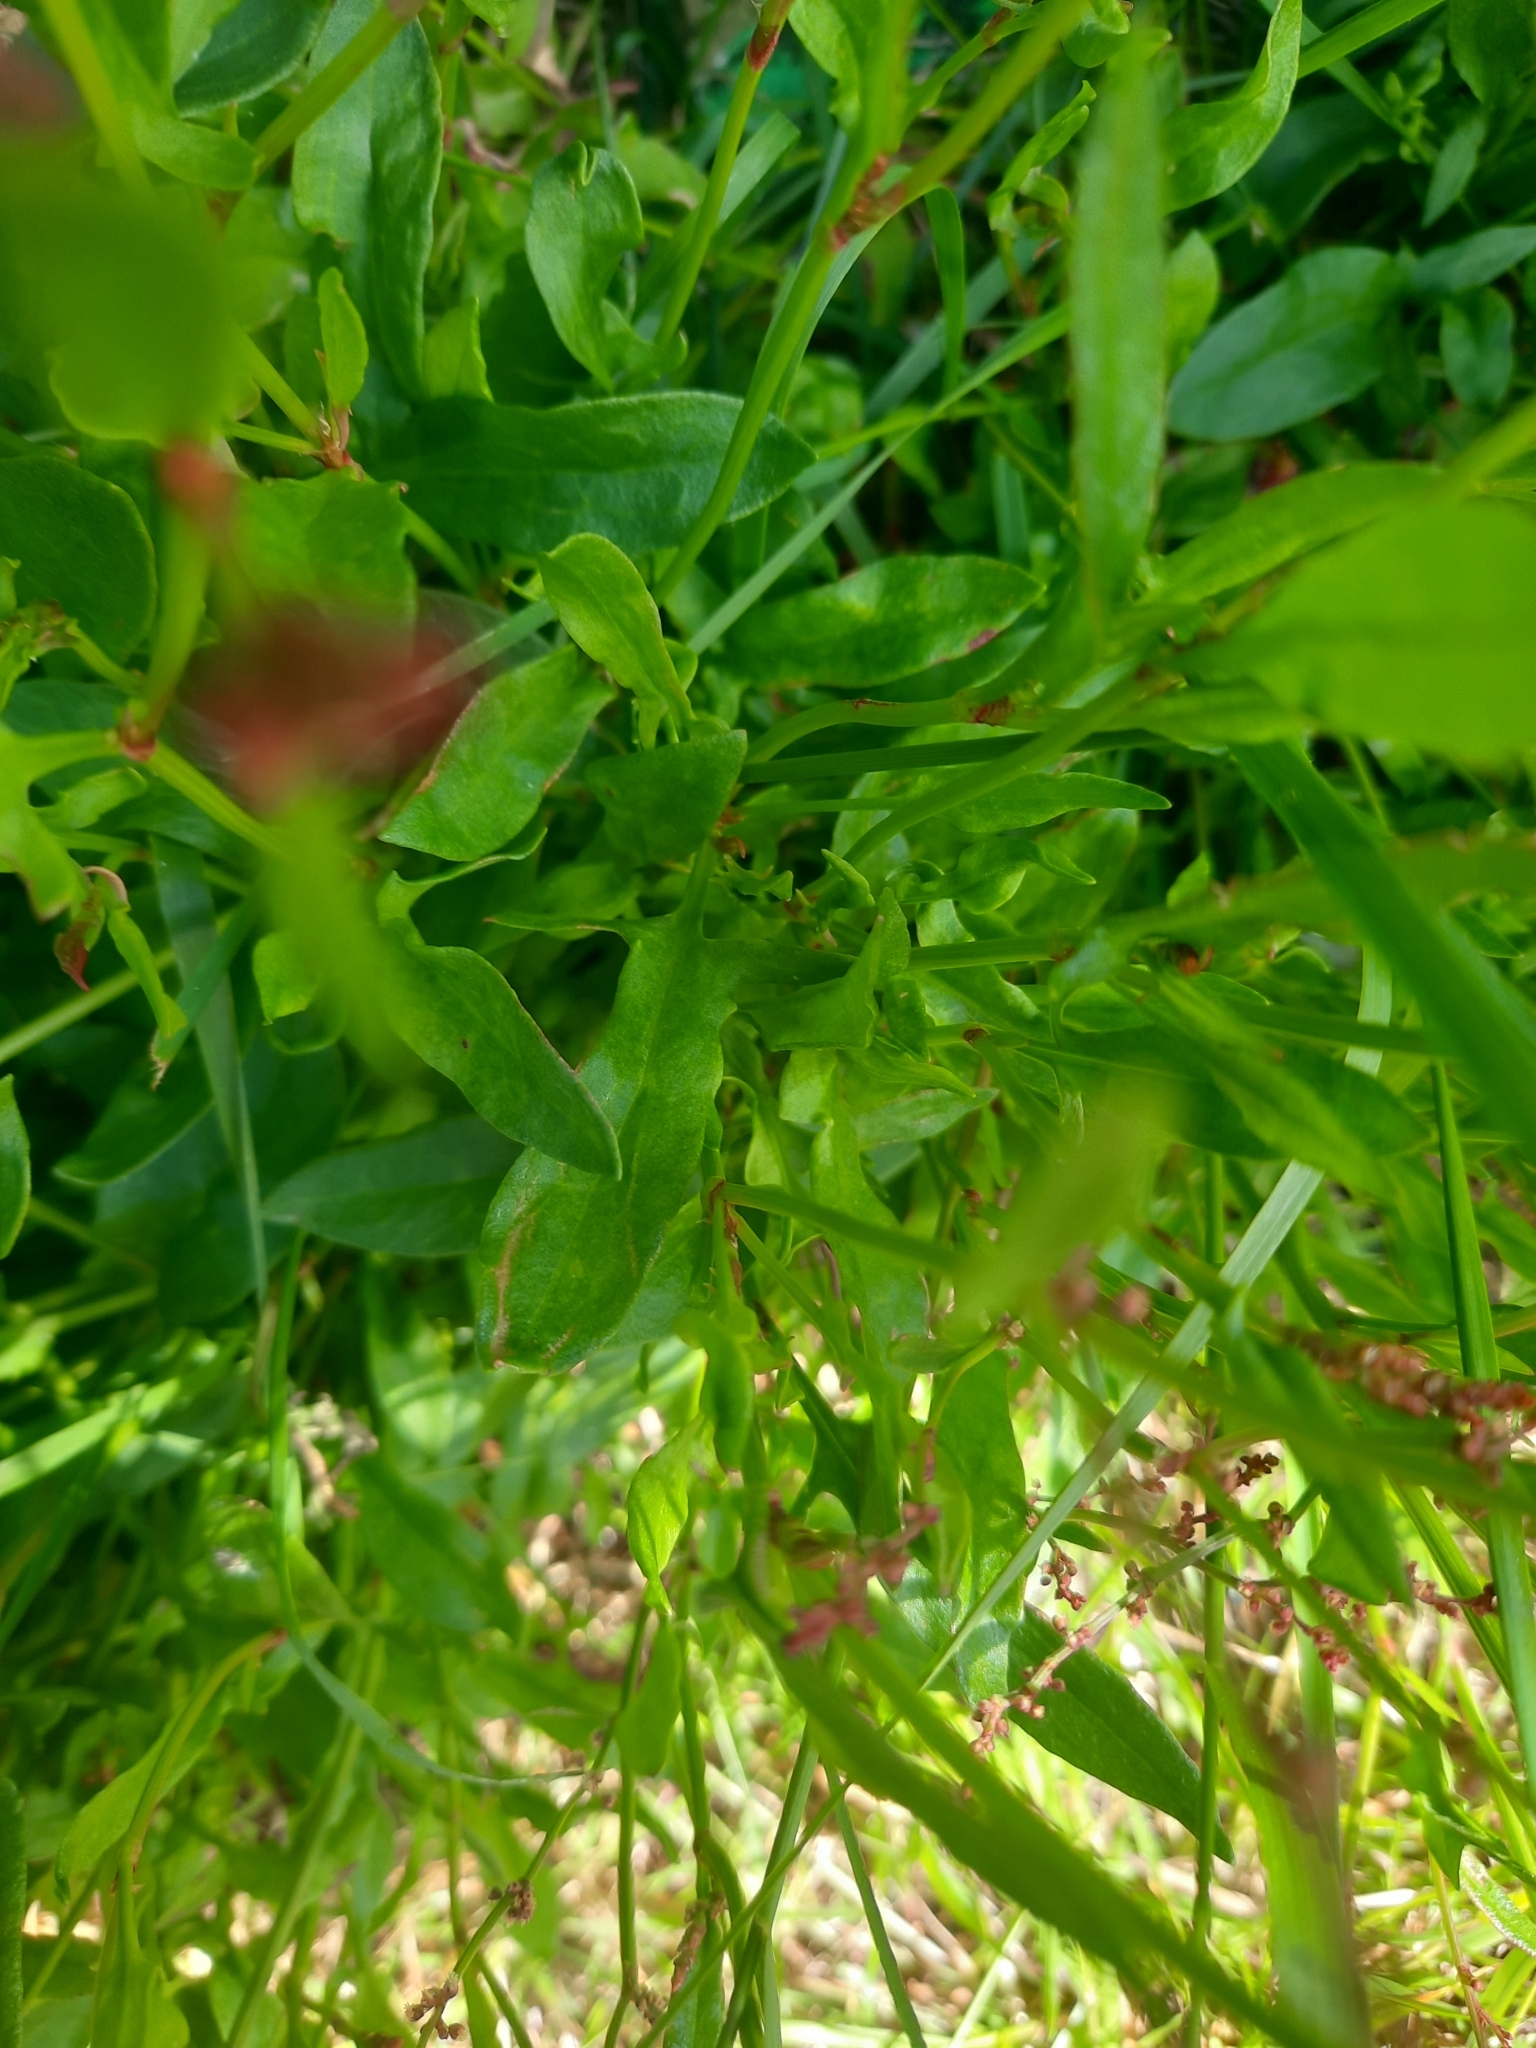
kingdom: Plantae
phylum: Tracheophyta
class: Magnoliopsida
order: Caryophyllales
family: Polygonaceae
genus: Rumex
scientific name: Rumex acetosella
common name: Common sheep sorrel
